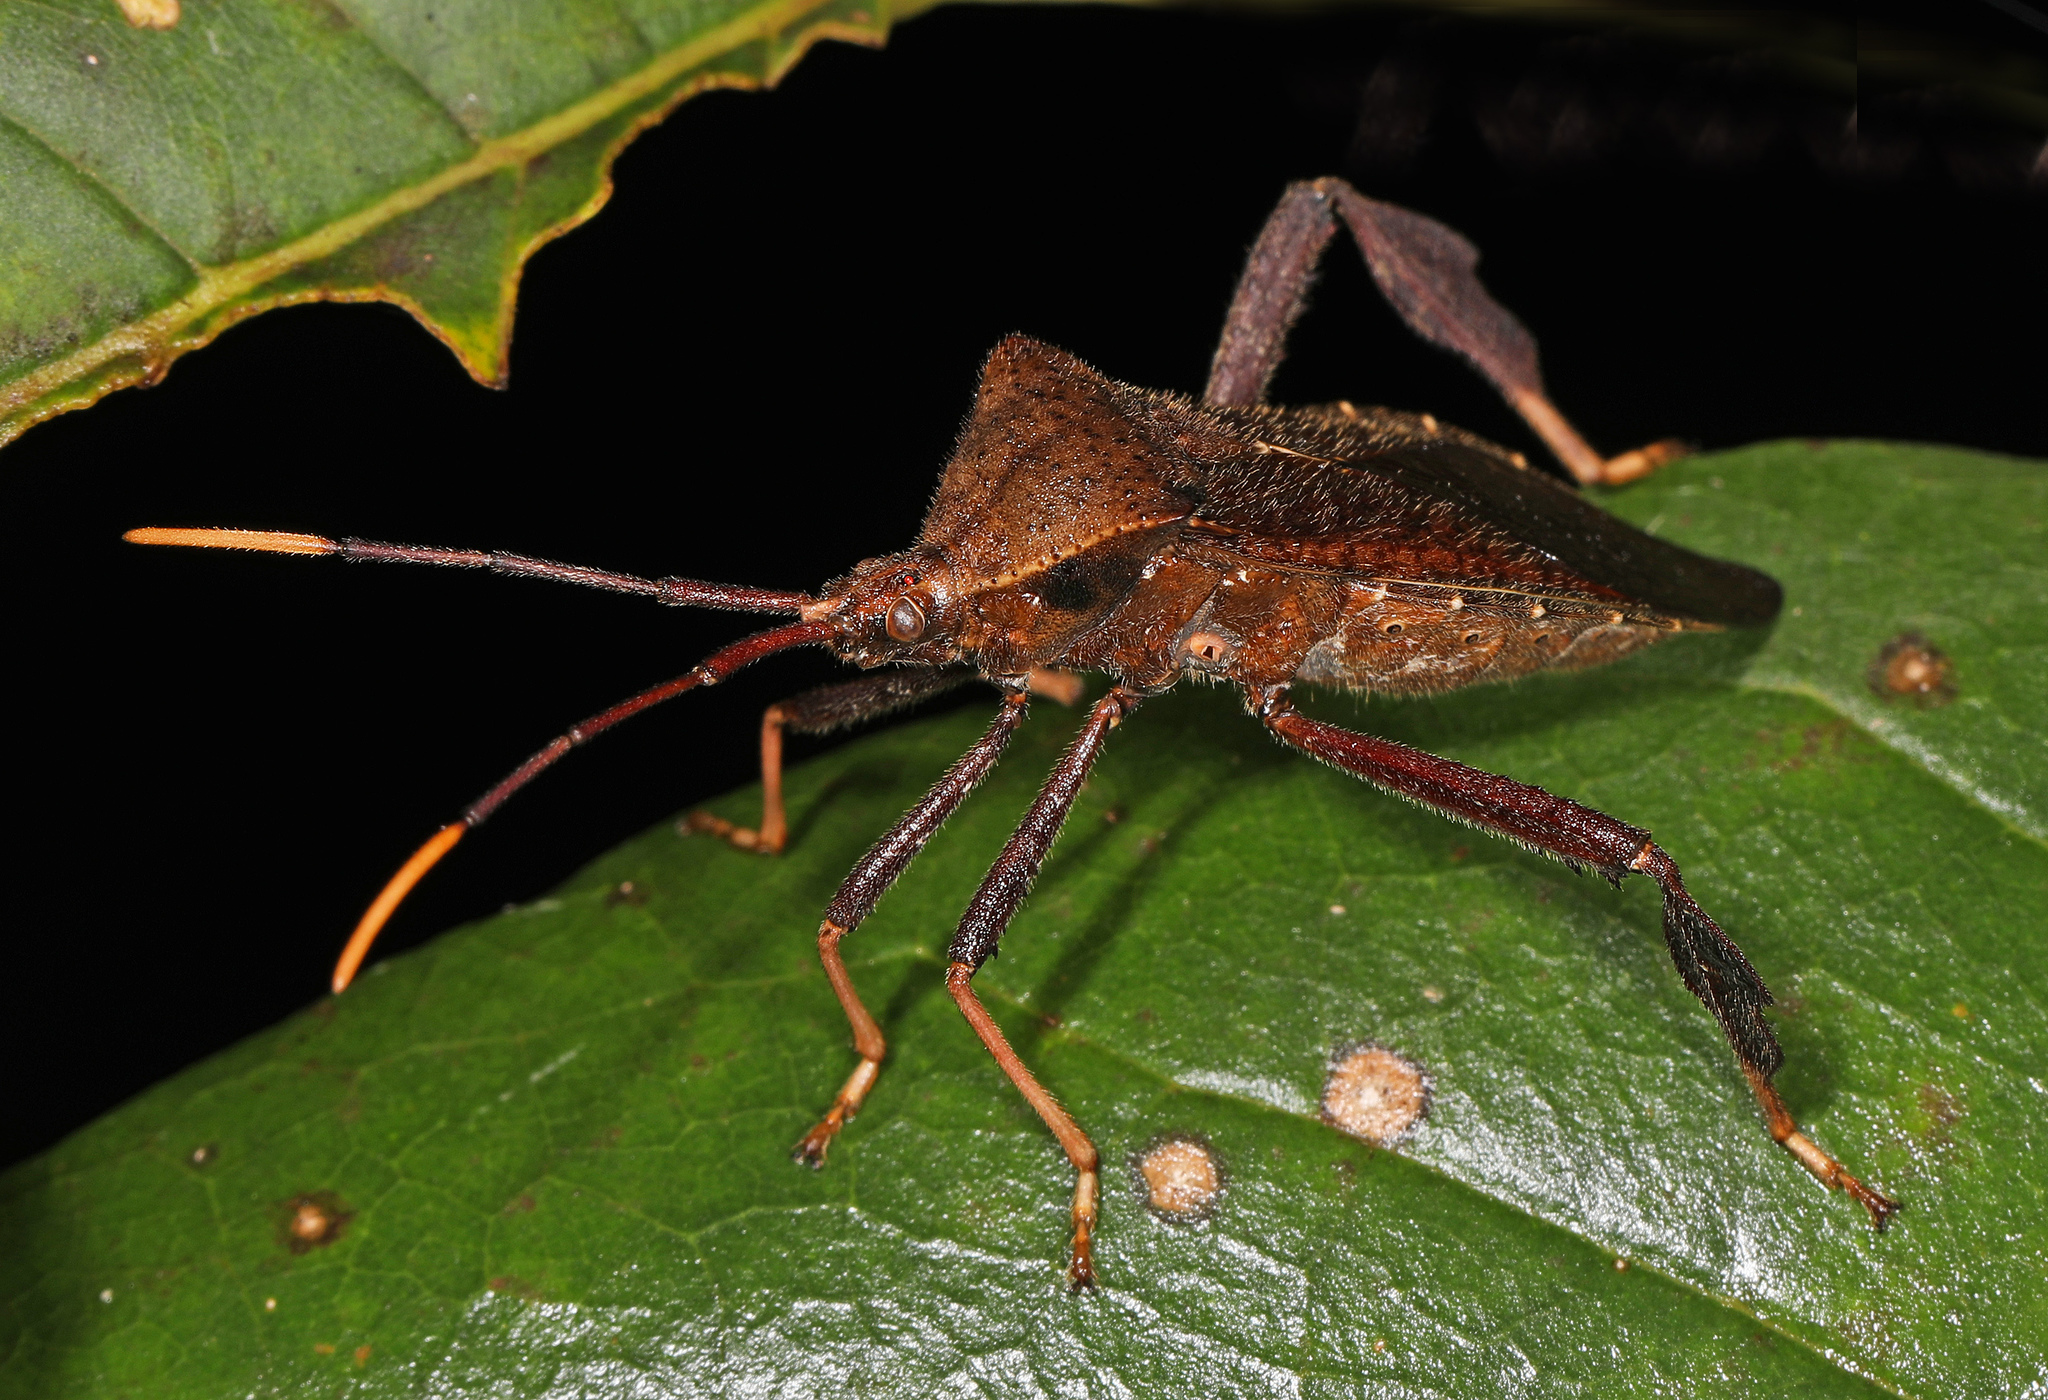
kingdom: Animalia
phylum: Arthropoda
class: Insecta
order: Hemiptera
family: Coreidae
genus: Acanthocephala
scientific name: Acanthocephala terminalis
